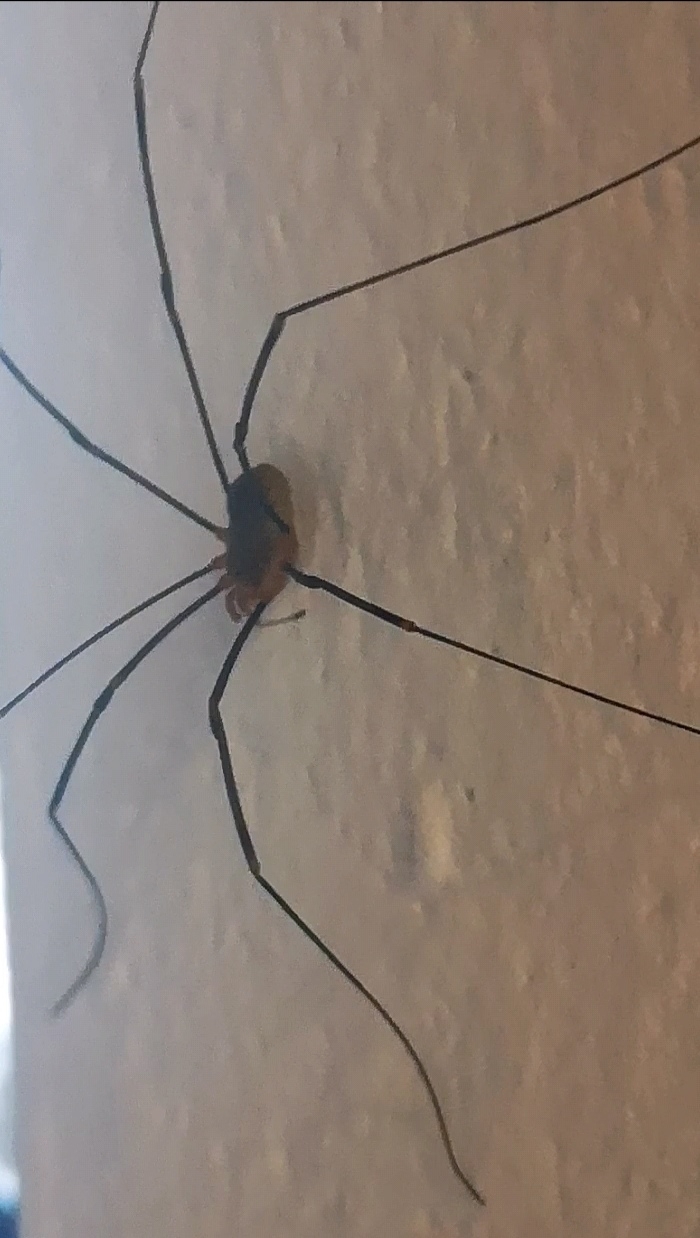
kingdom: Animalia
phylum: Arthropoda
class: Arachnida
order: Opiliones
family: Phalangiidae
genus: Opilio
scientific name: Opilio canestrinii
